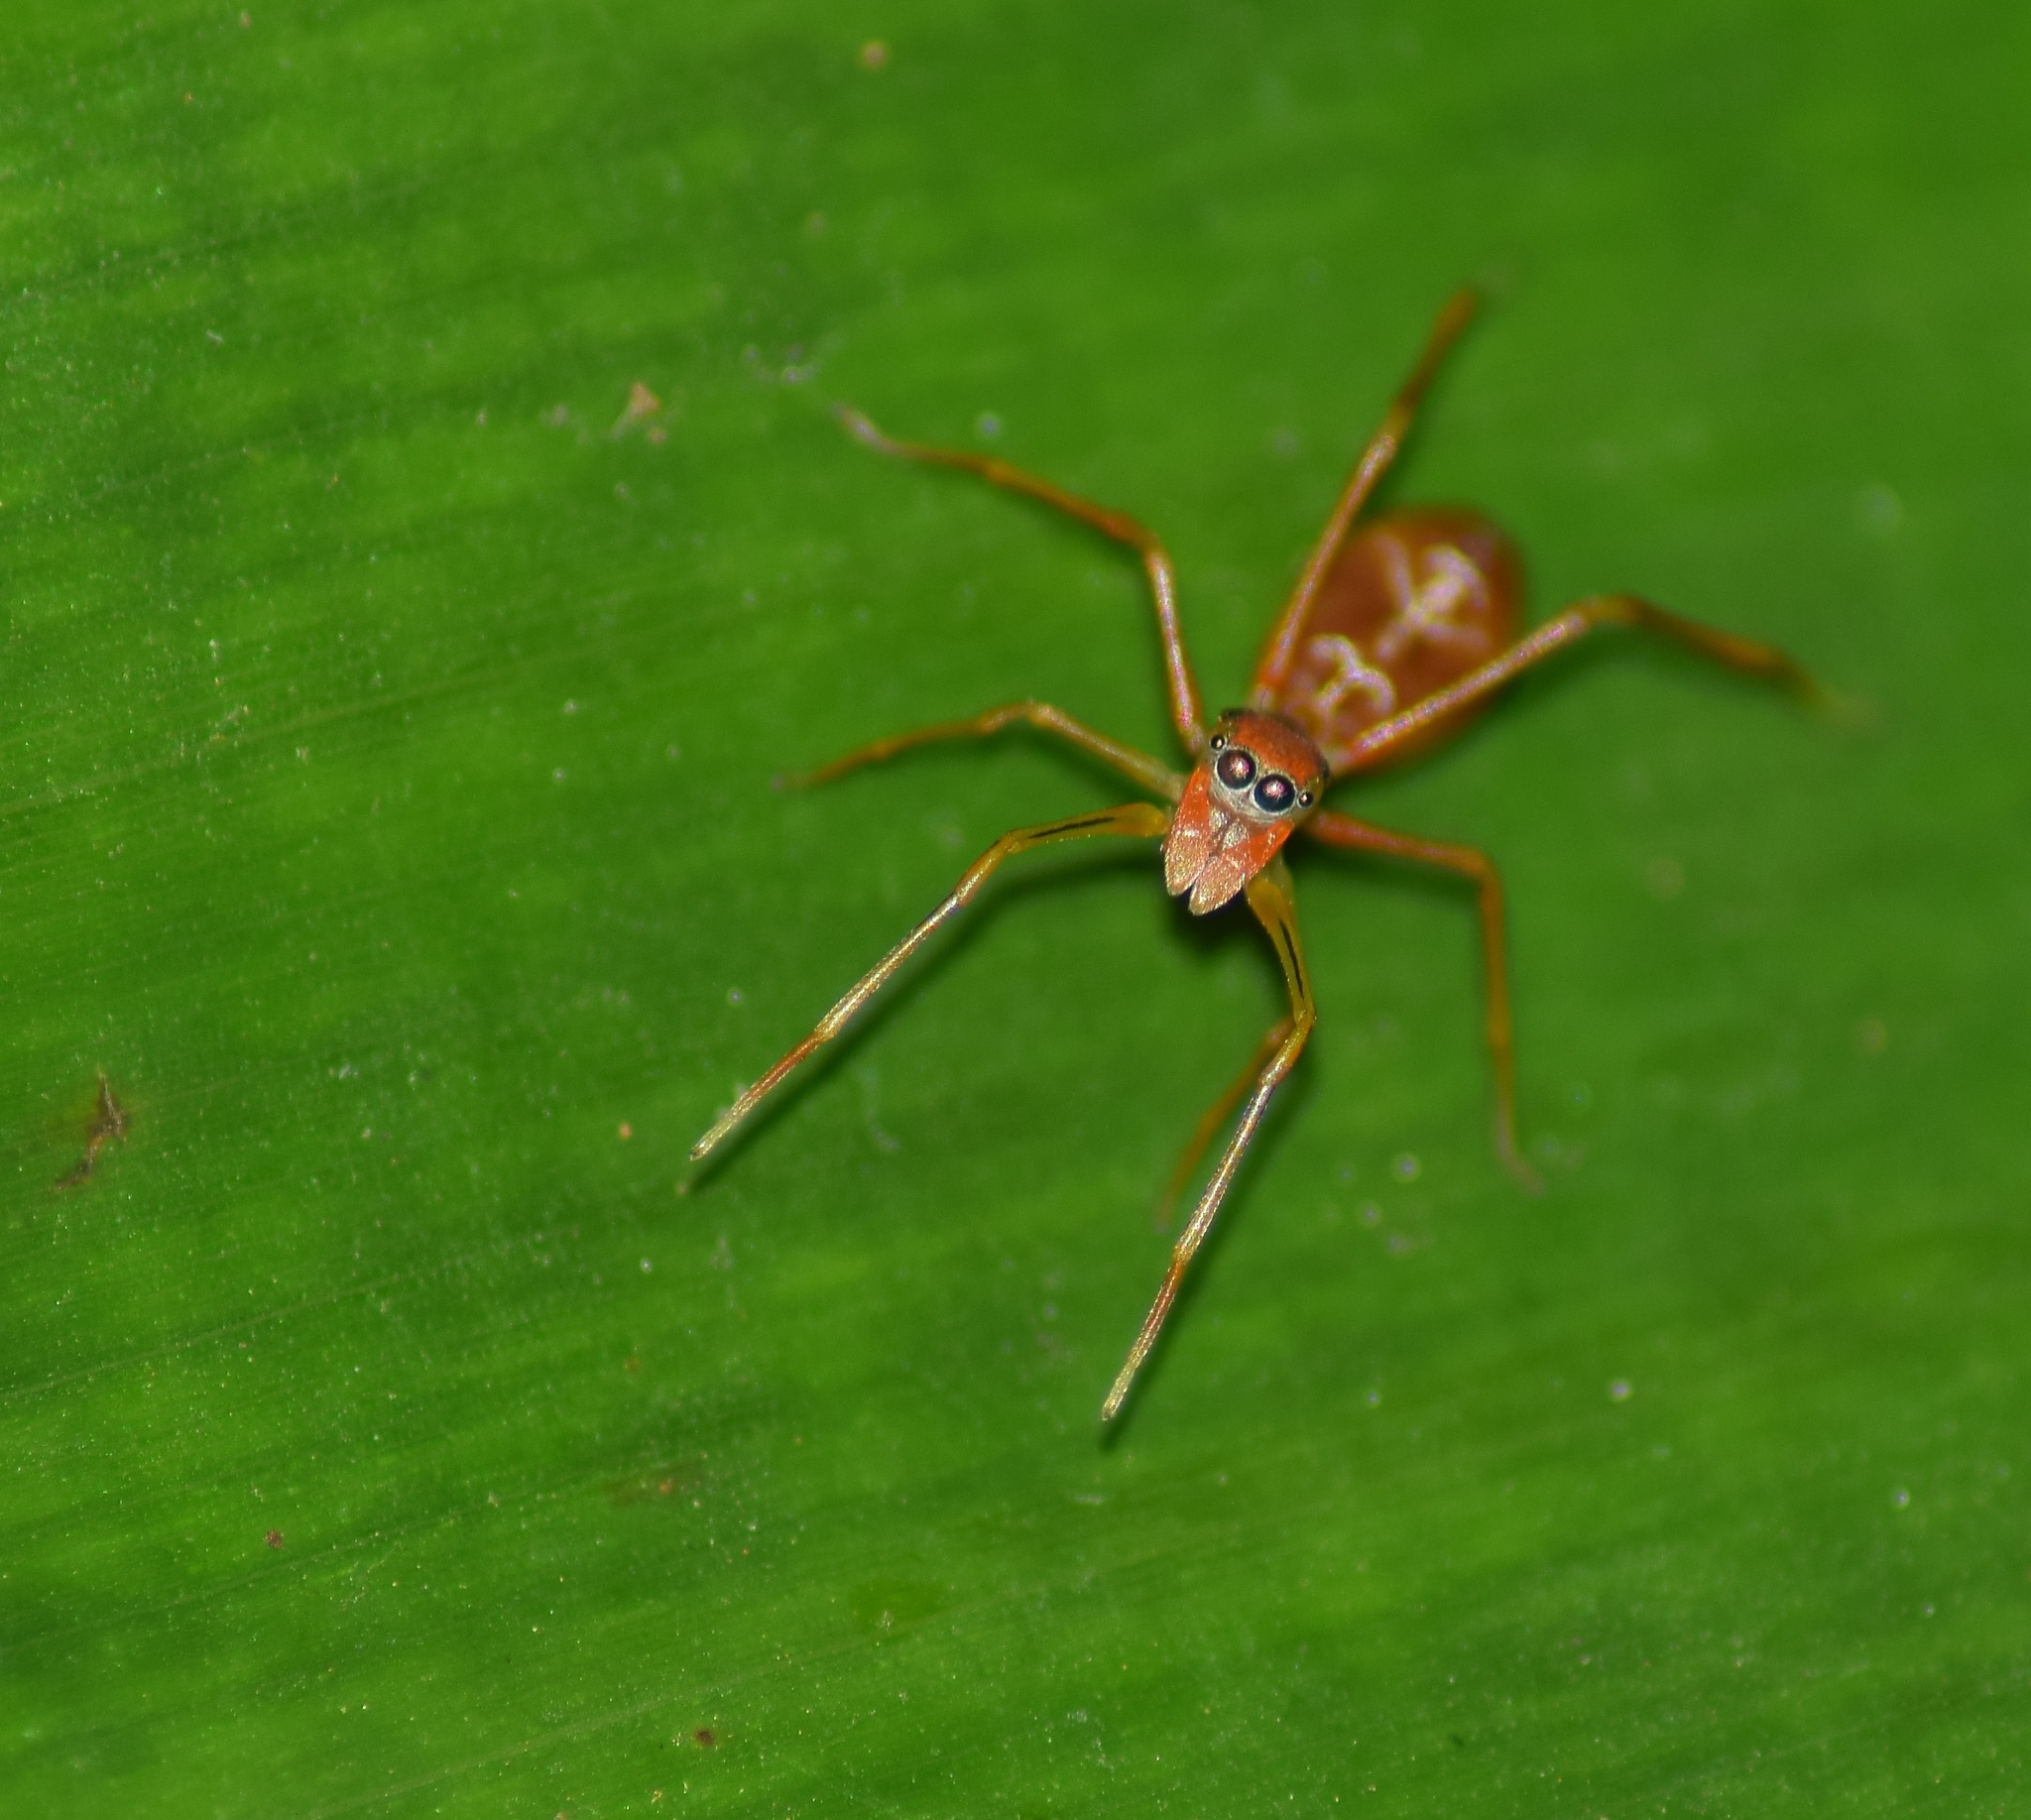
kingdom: Animalia
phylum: Arthropoda
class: Arachnida
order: Araneae
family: Salticidae
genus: Myrmaplata
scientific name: Myrmaplata plataleoides
